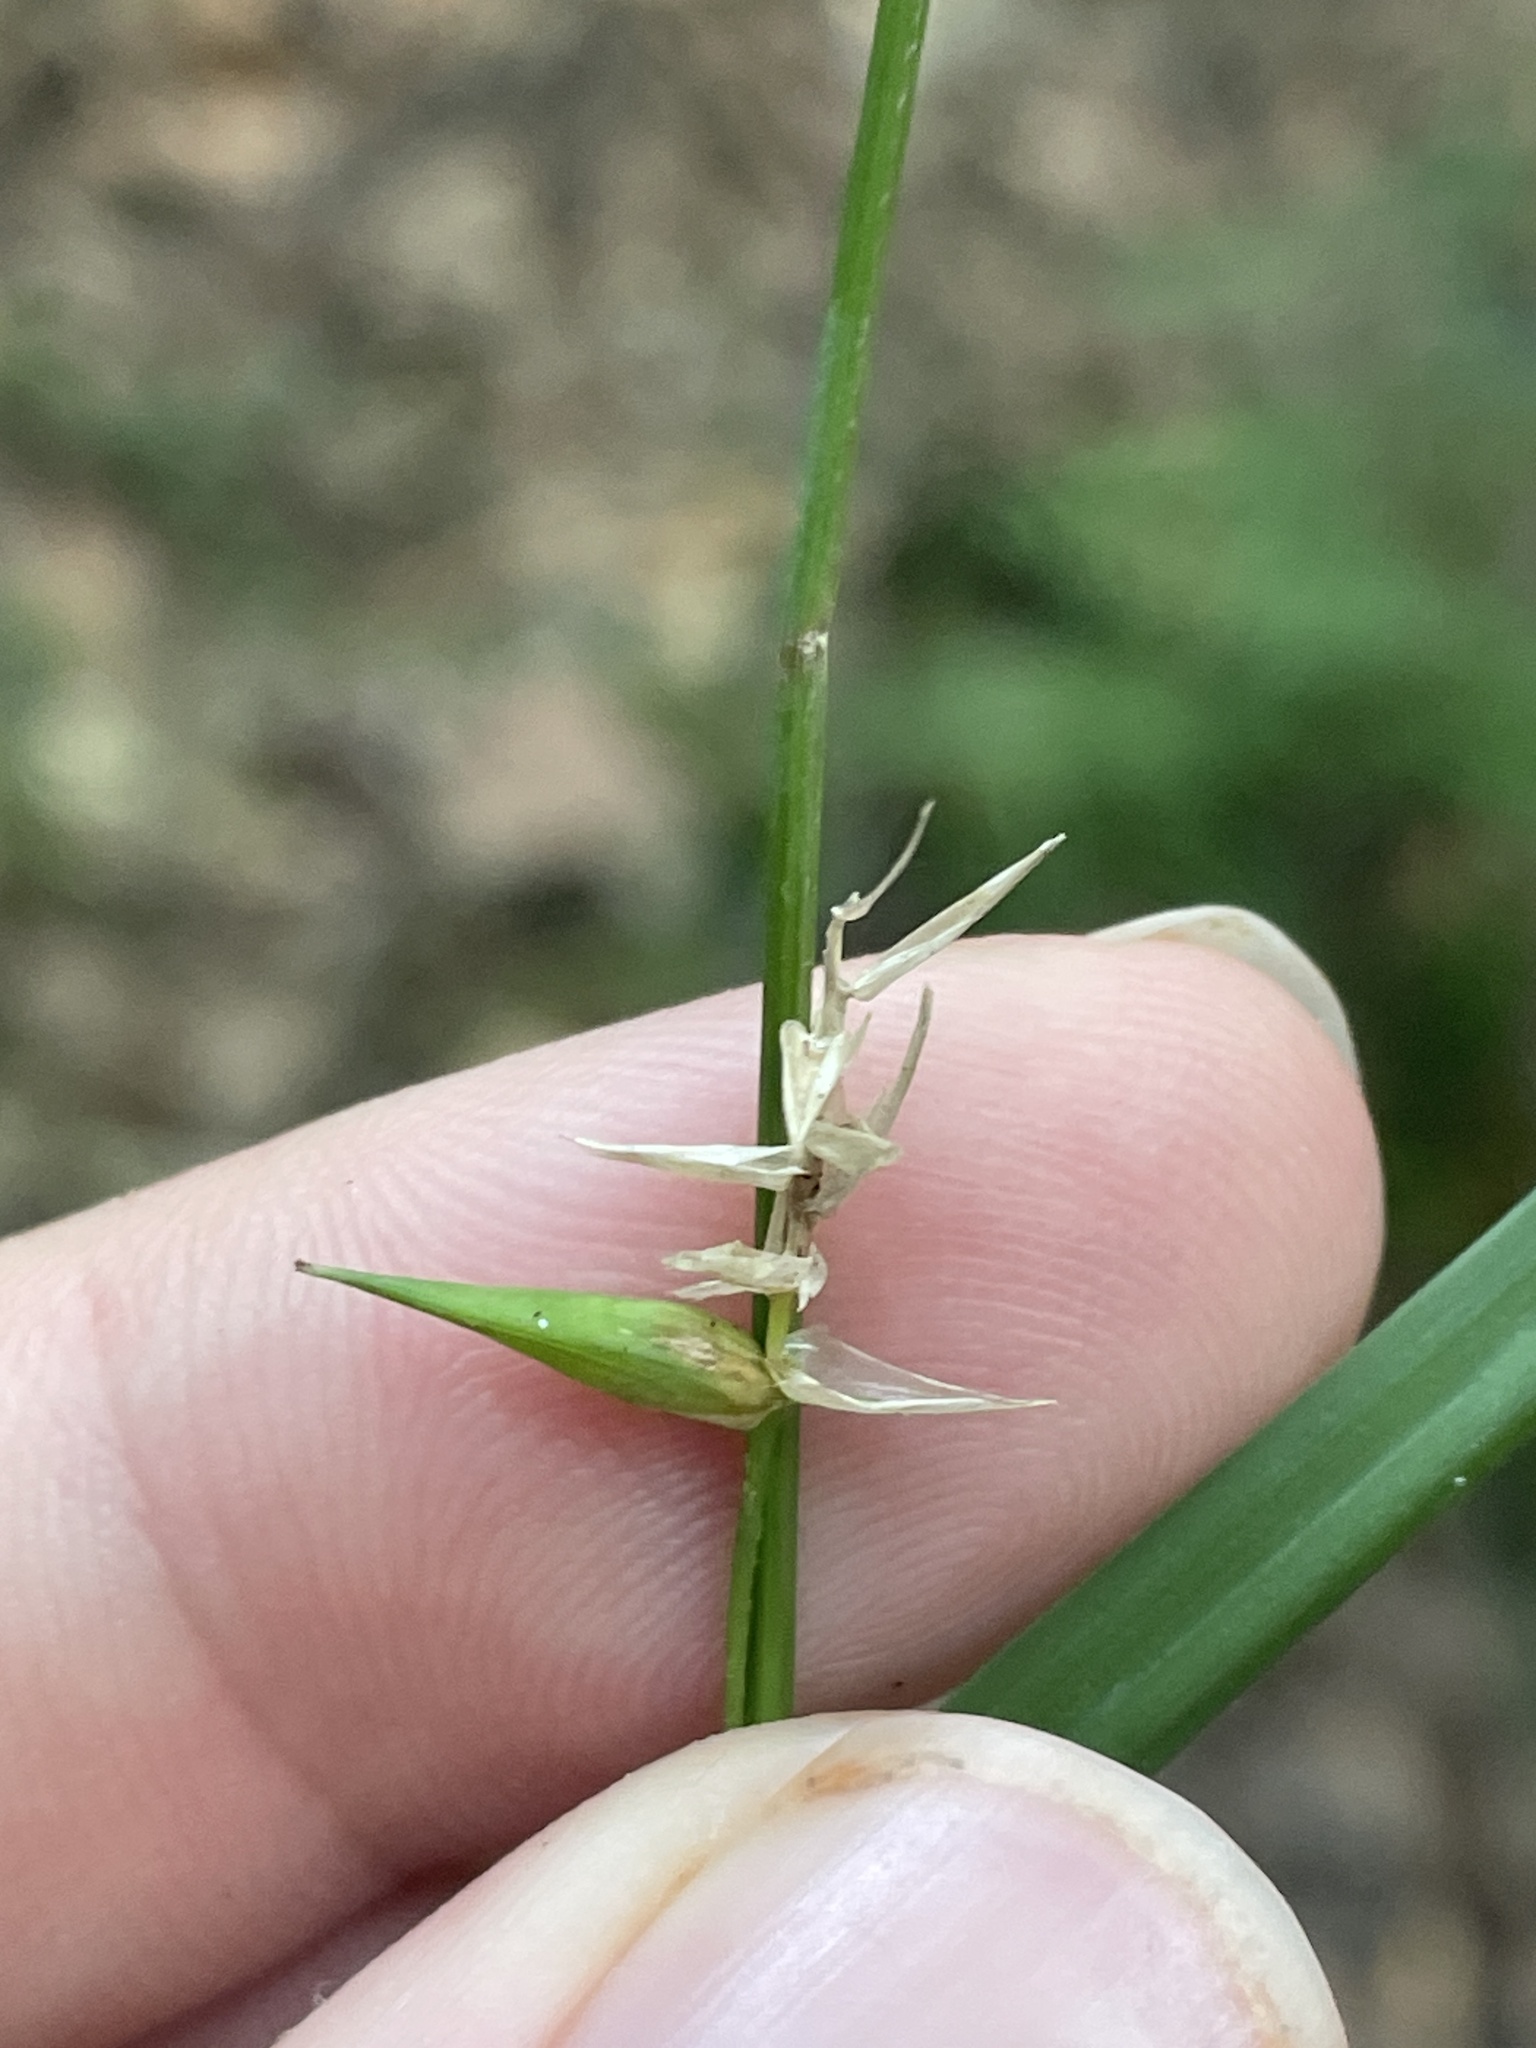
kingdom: Plantae
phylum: Tracheophyta
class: Liliopsida
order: Poales
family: Cyperaceae
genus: Carex
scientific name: Carex lonchocarpa
